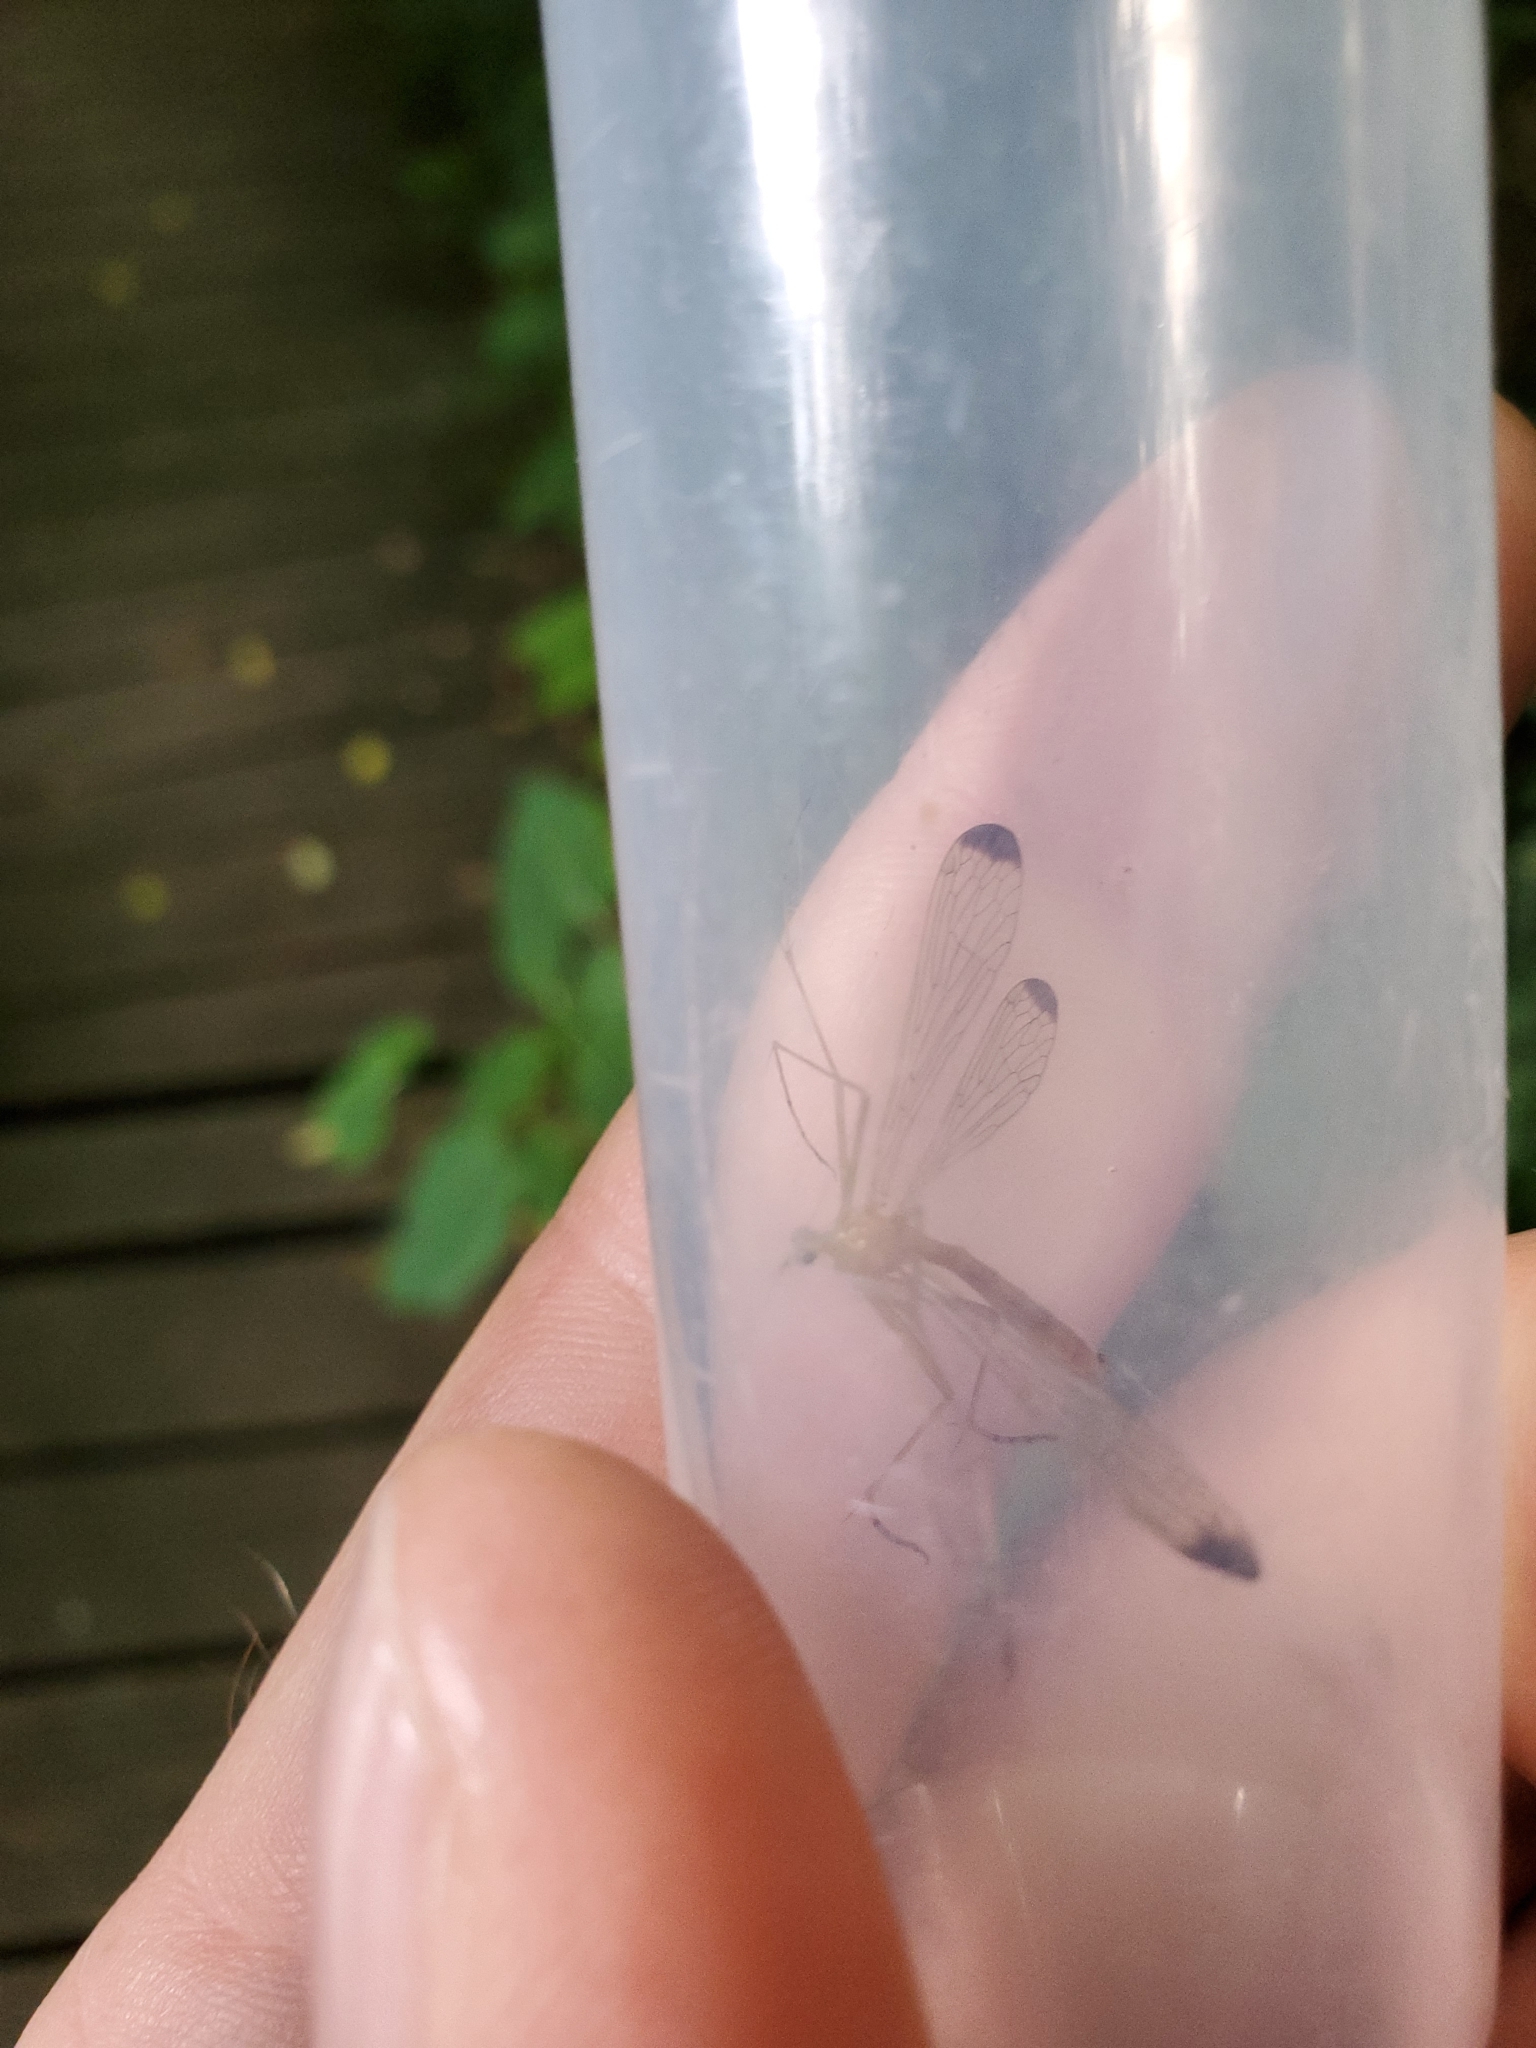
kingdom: Animalia
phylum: Arthropoda
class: Insecta
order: Mecoptera
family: Bittacidae
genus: Hylobittacus
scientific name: Hylobittacus apicalis
